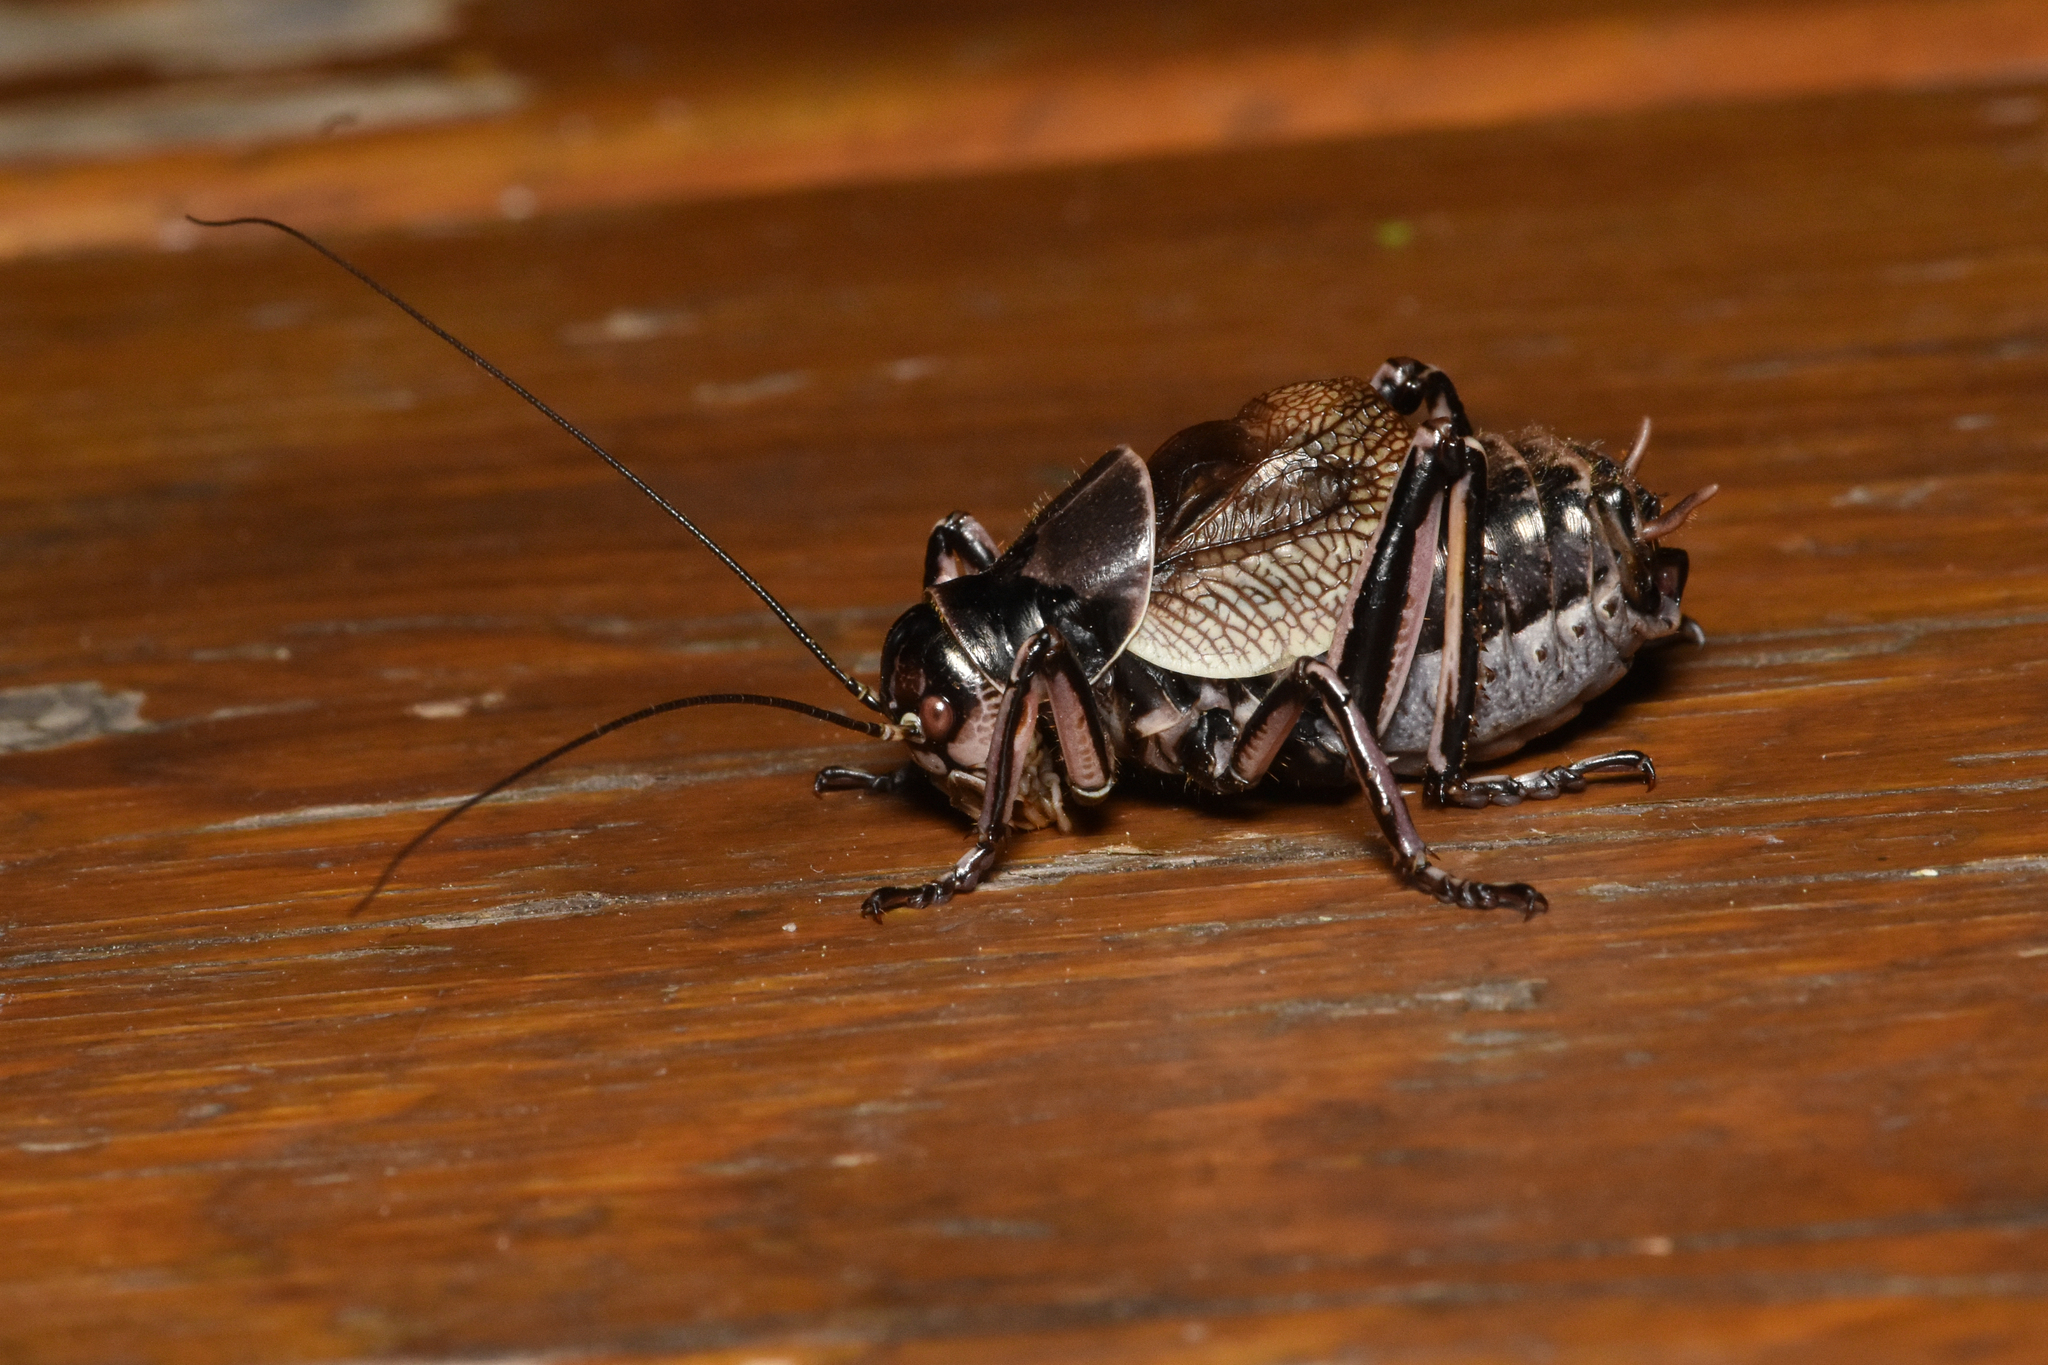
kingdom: Animalia
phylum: Arthropoda
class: Insecta
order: Orthoptera
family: Prophalangopsidae
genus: Cyphoderris
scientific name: Cyphoderris monstrosa
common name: Great grig
